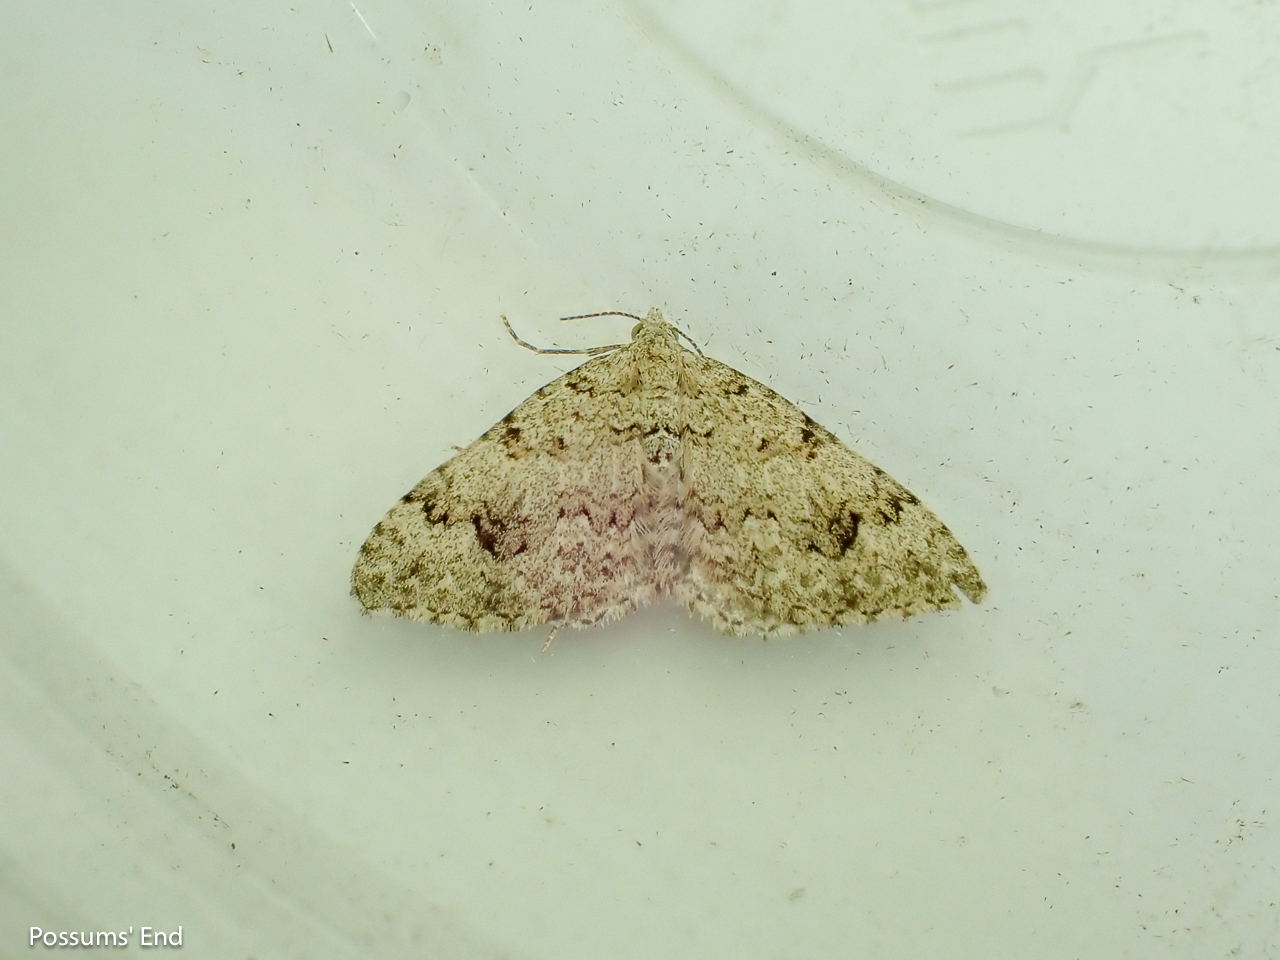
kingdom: Animalia
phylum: Arthropoda
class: Insecta
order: Lepidoptera
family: Geometridae
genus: Helastia
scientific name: Helastia cinerearia
